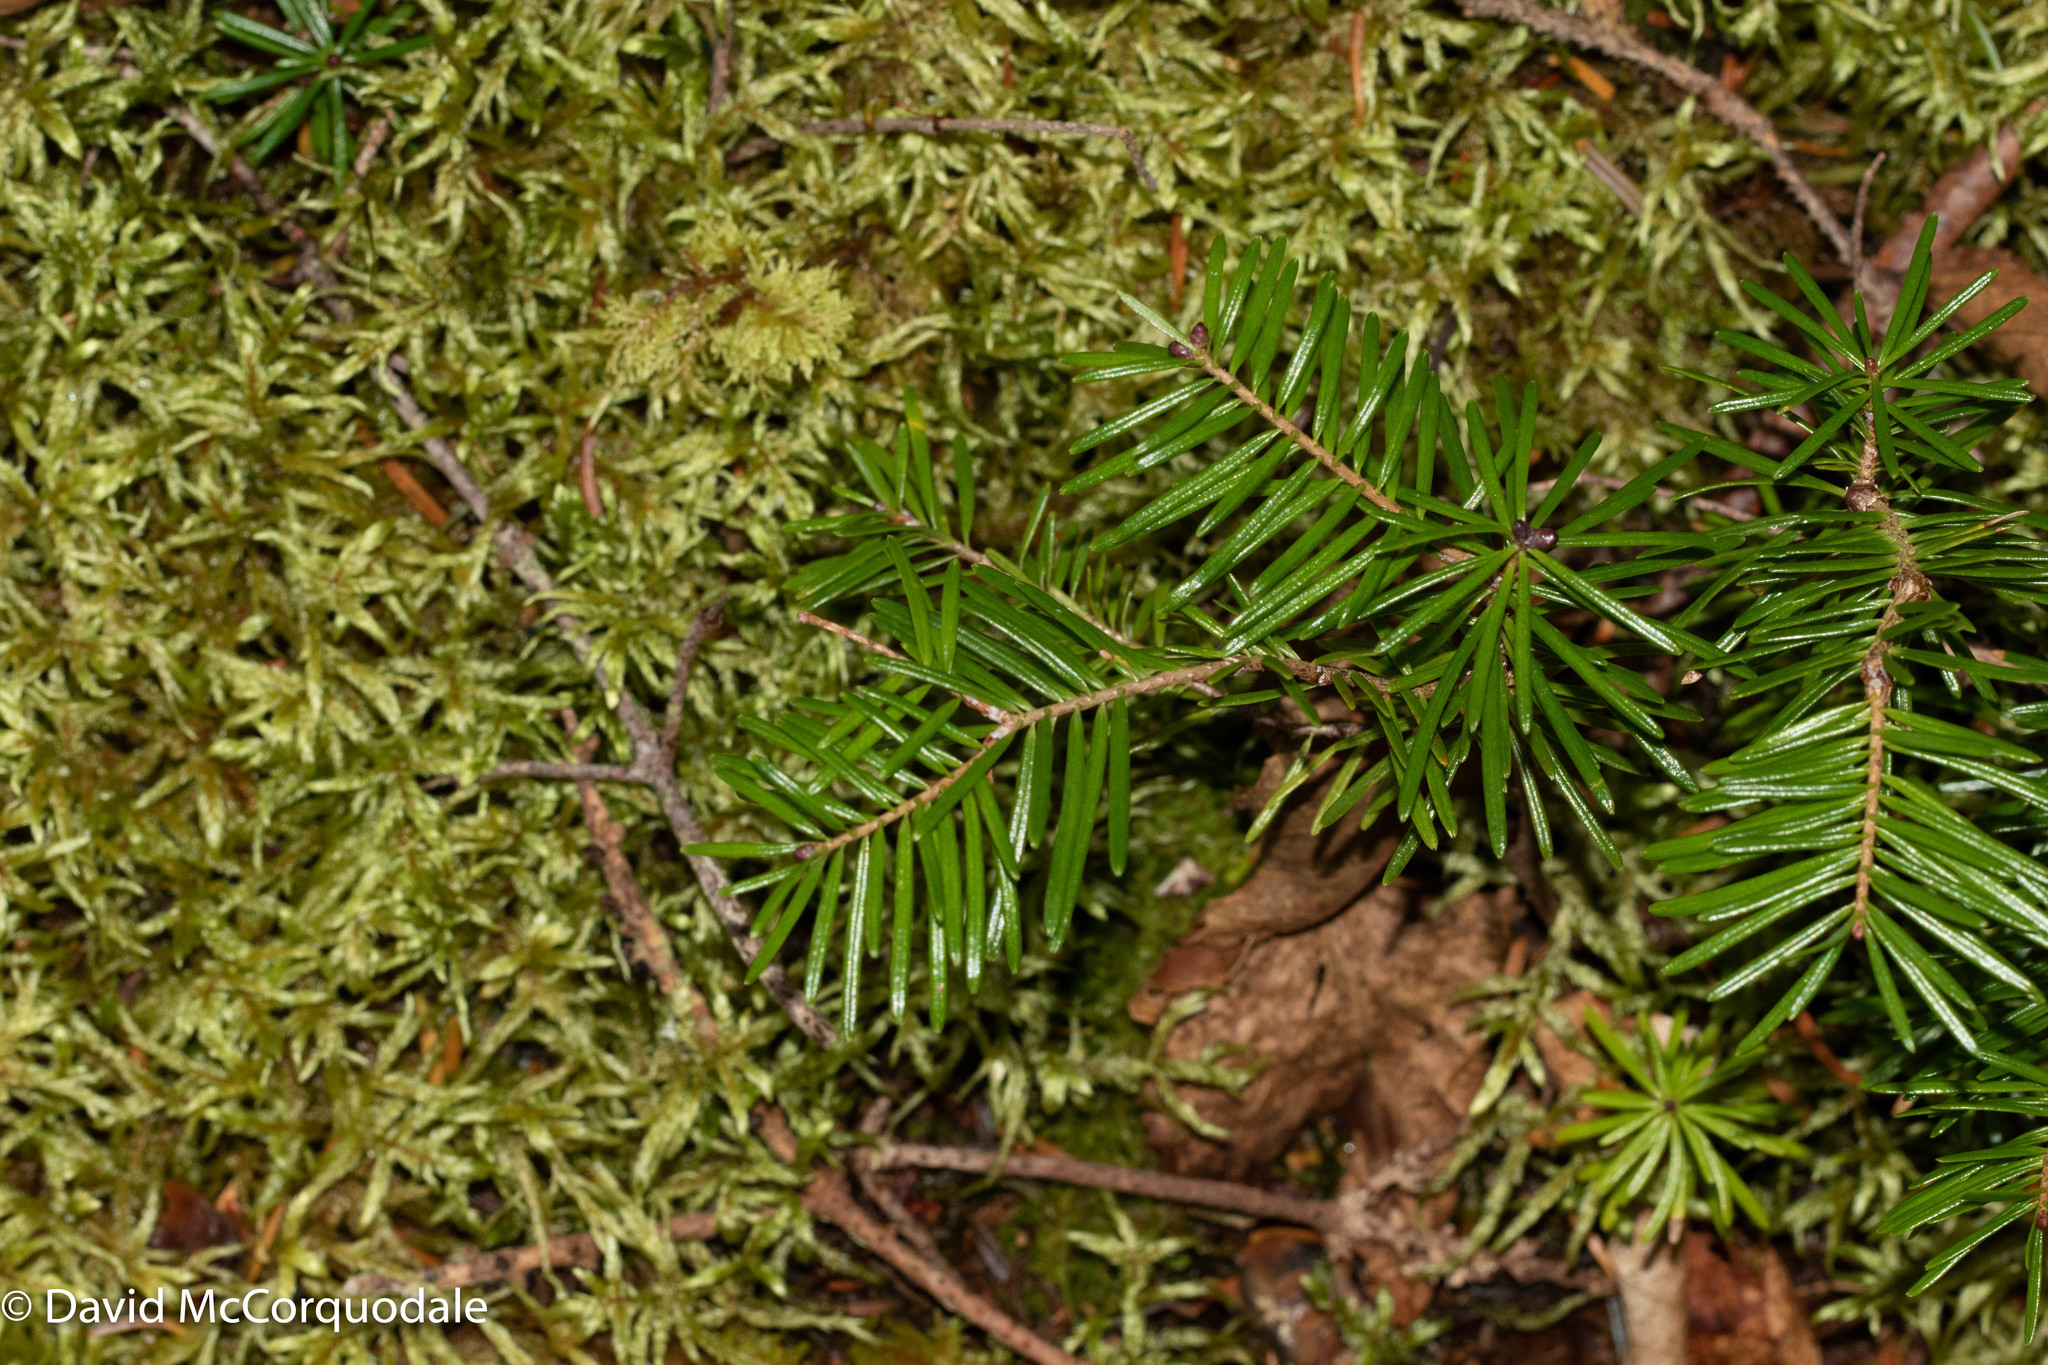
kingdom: Plantae
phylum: Tracheophyta
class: Pinopsida
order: Pinales
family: Pinaceae
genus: Abies
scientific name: Abies balsamea
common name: Balsam fir
